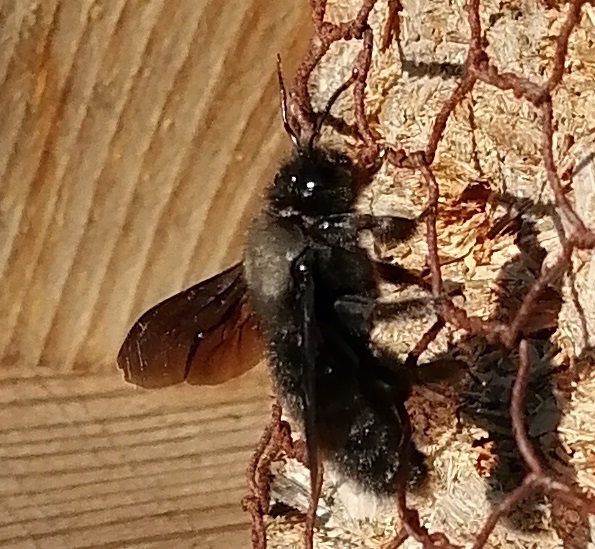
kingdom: Animalia
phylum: Arthropoda
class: Insecta
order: Hymenoptera
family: Apidae
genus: Xylocopa
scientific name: Xylocopa violacea
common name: Violet carpenter bee
